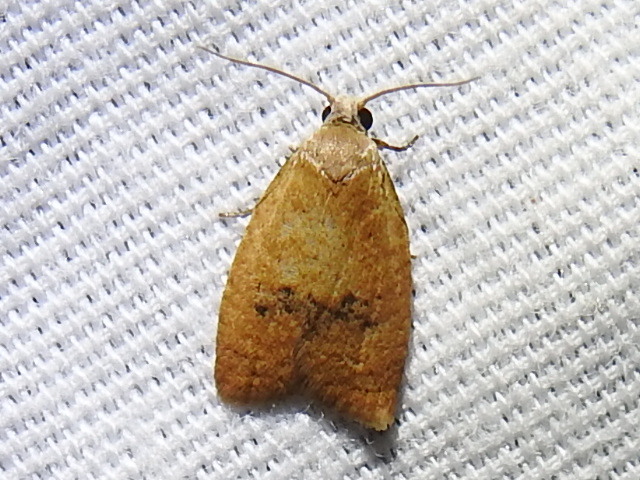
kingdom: Animalia
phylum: Arthropoda
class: Insecta
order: Lepidoptera
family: Tortricidae
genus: Sparganothoides
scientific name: Sparganothoides lentiginosana
